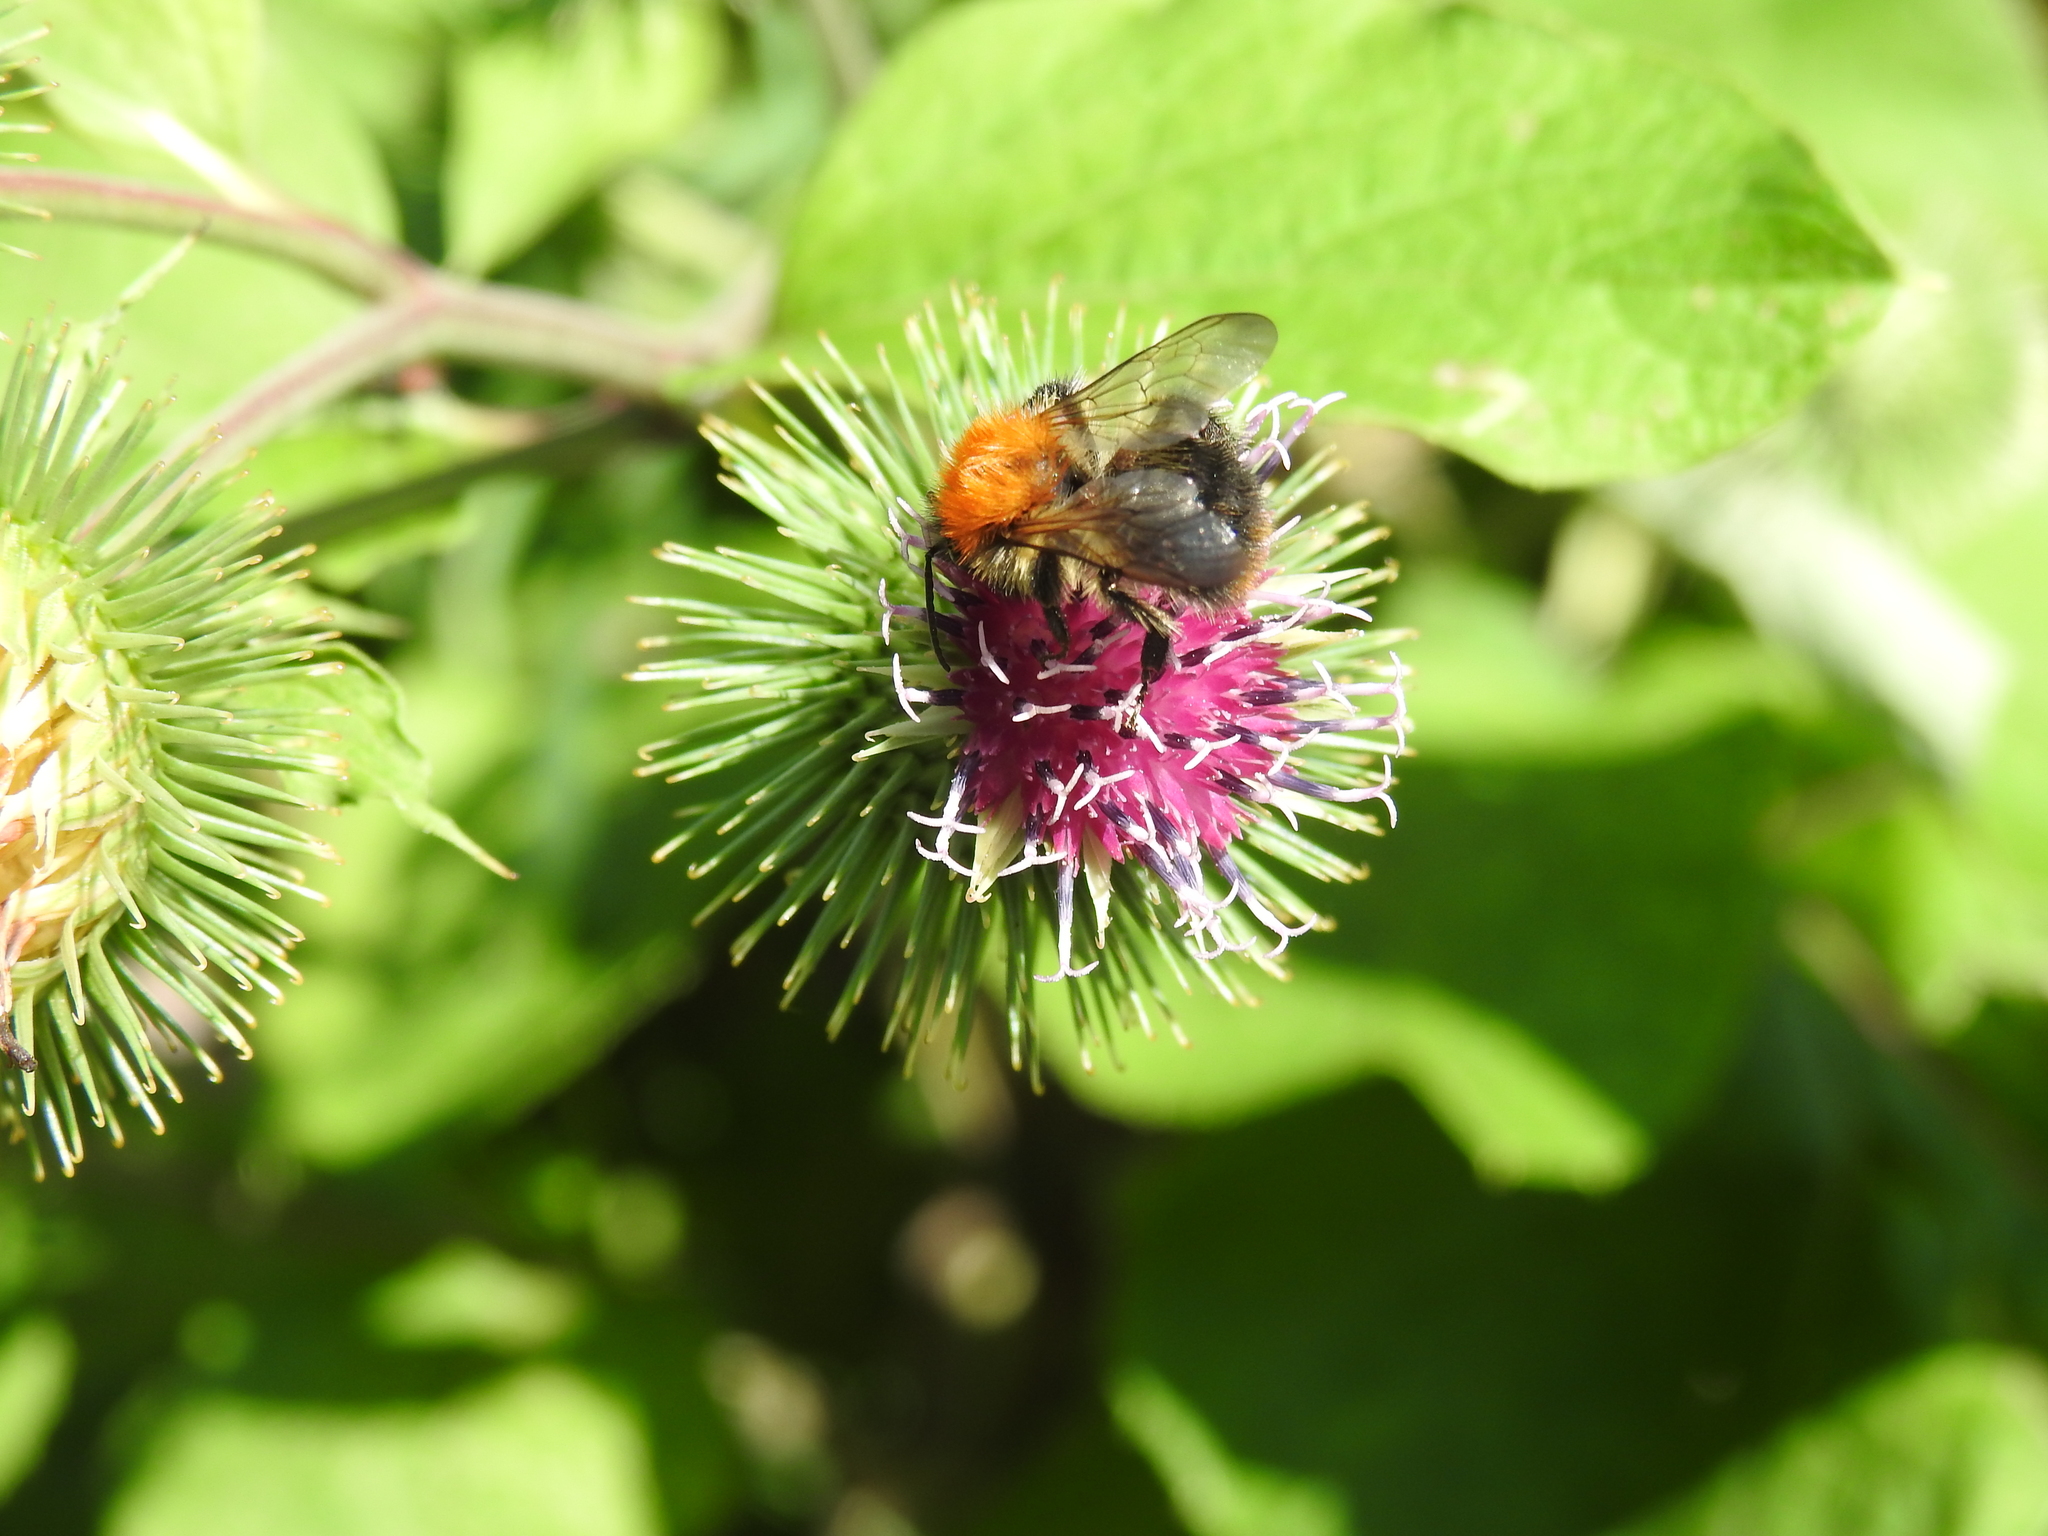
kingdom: Animalia
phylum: Arthropoda
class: Insecta
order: Hymenoptera
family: Apidae
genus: Bombus
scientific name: Bombus pascuorum
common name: Common carder bee
